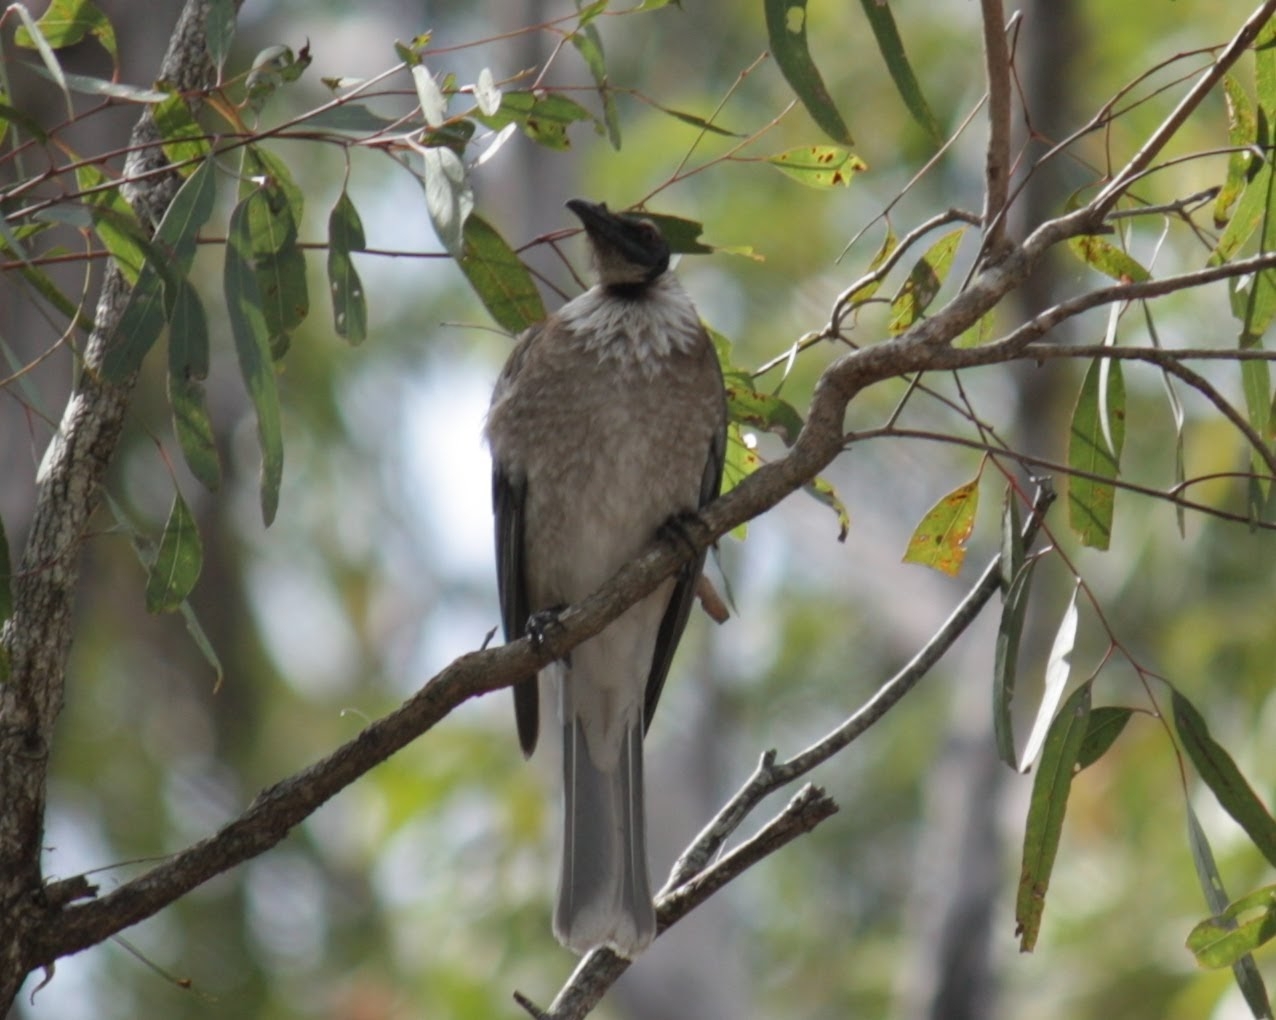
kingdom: Animalia
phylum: Chordata
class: Aves
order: Passeriformes
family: Meliphagidae
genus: Philemon
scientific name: Philemon corniculatus
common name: Noisy friarbird
